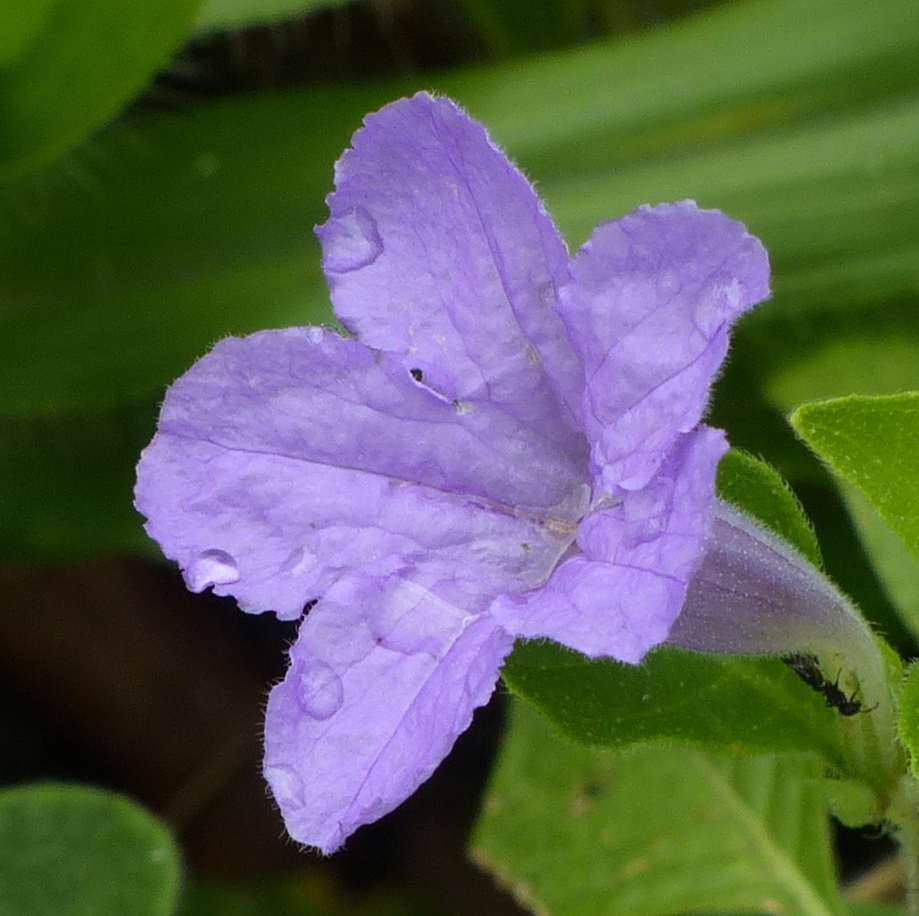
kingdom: Plantae
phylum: Tracheophyta
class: Magnoliopsida
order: Lamiales
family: Acanthaceae
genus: Ruellia
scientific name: Ruellia bahiensis
